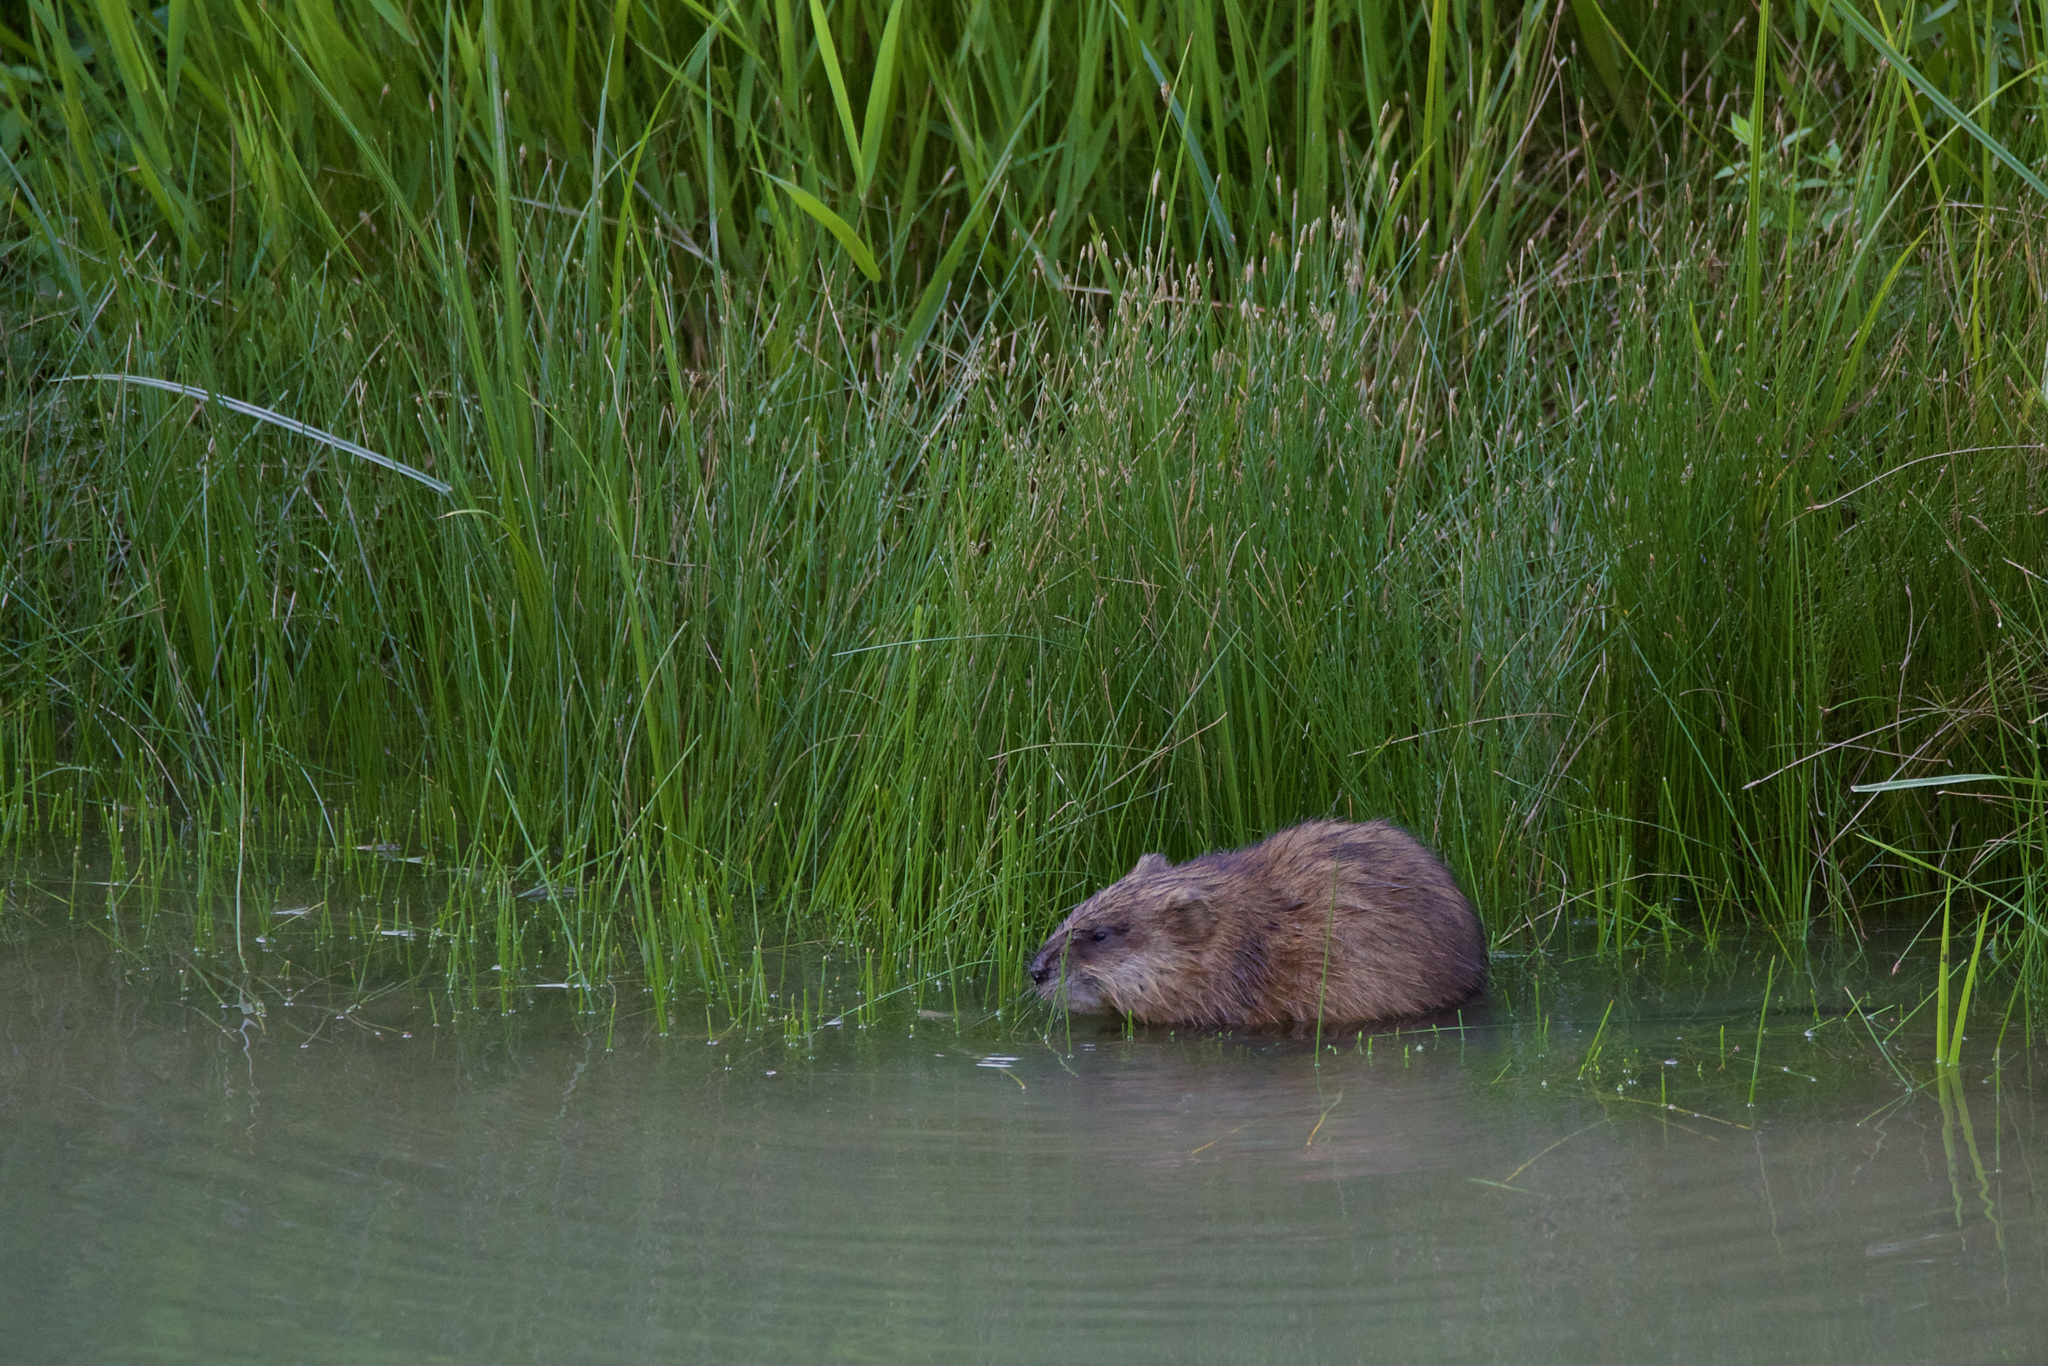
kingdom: Animalia
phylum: Chordata
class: Mammalia
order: Rodentia
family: Cricetidae
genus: Ondatra
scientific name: Ondatra zibethicus
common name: Muskrat
